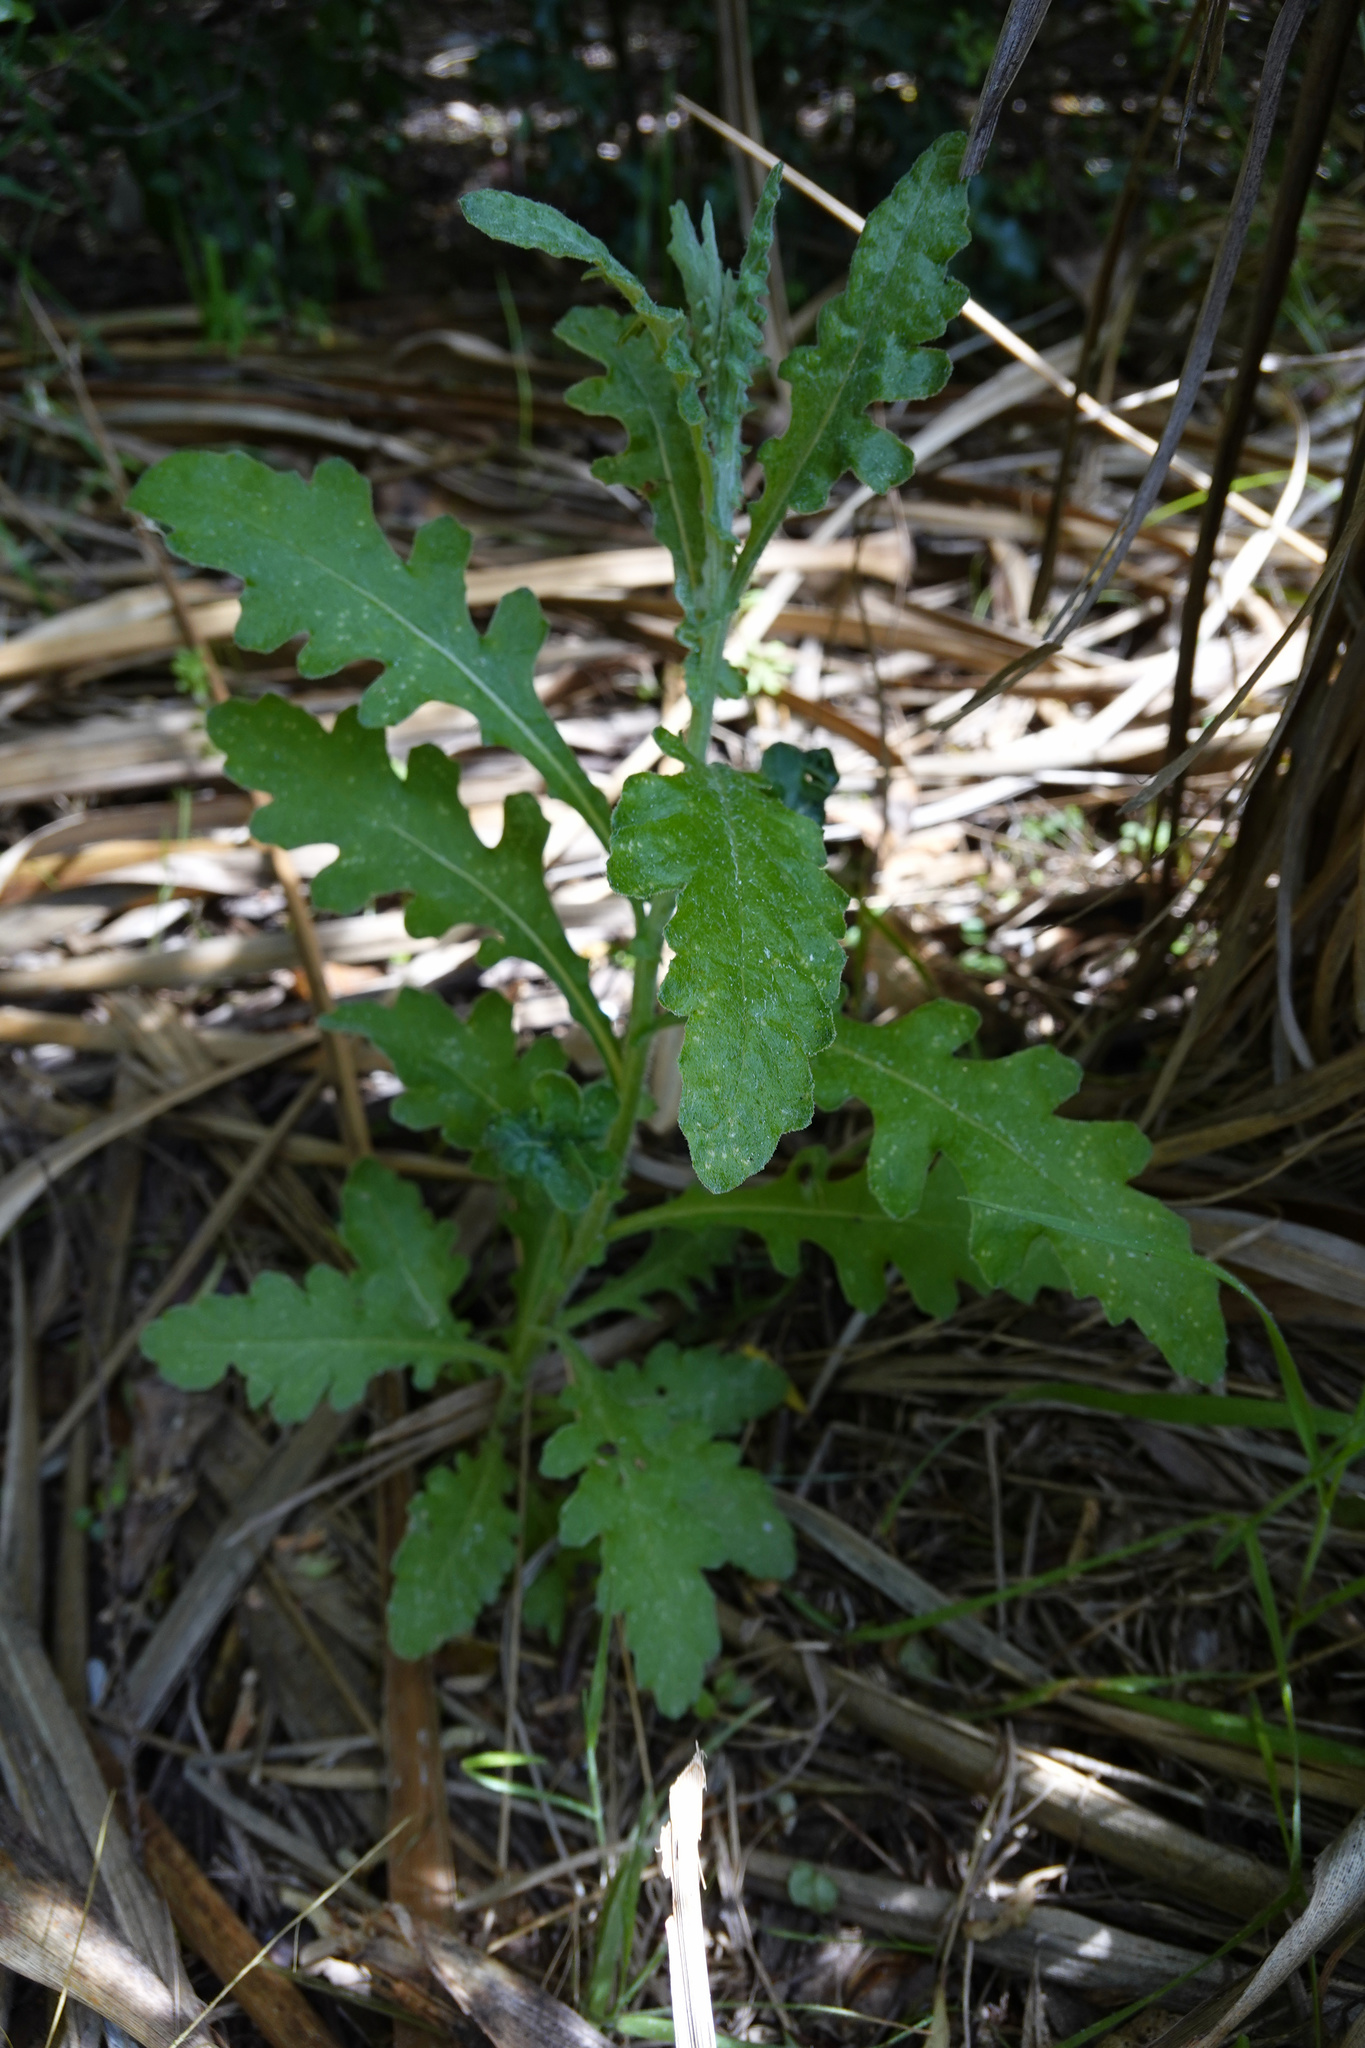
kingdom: Plantae
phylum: Tracheophyta
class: Magnoliopsida
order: Asterales
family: Asteraceae
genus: Senecio
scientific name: Senecio glomeratus
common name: Cutleaf burnweed
